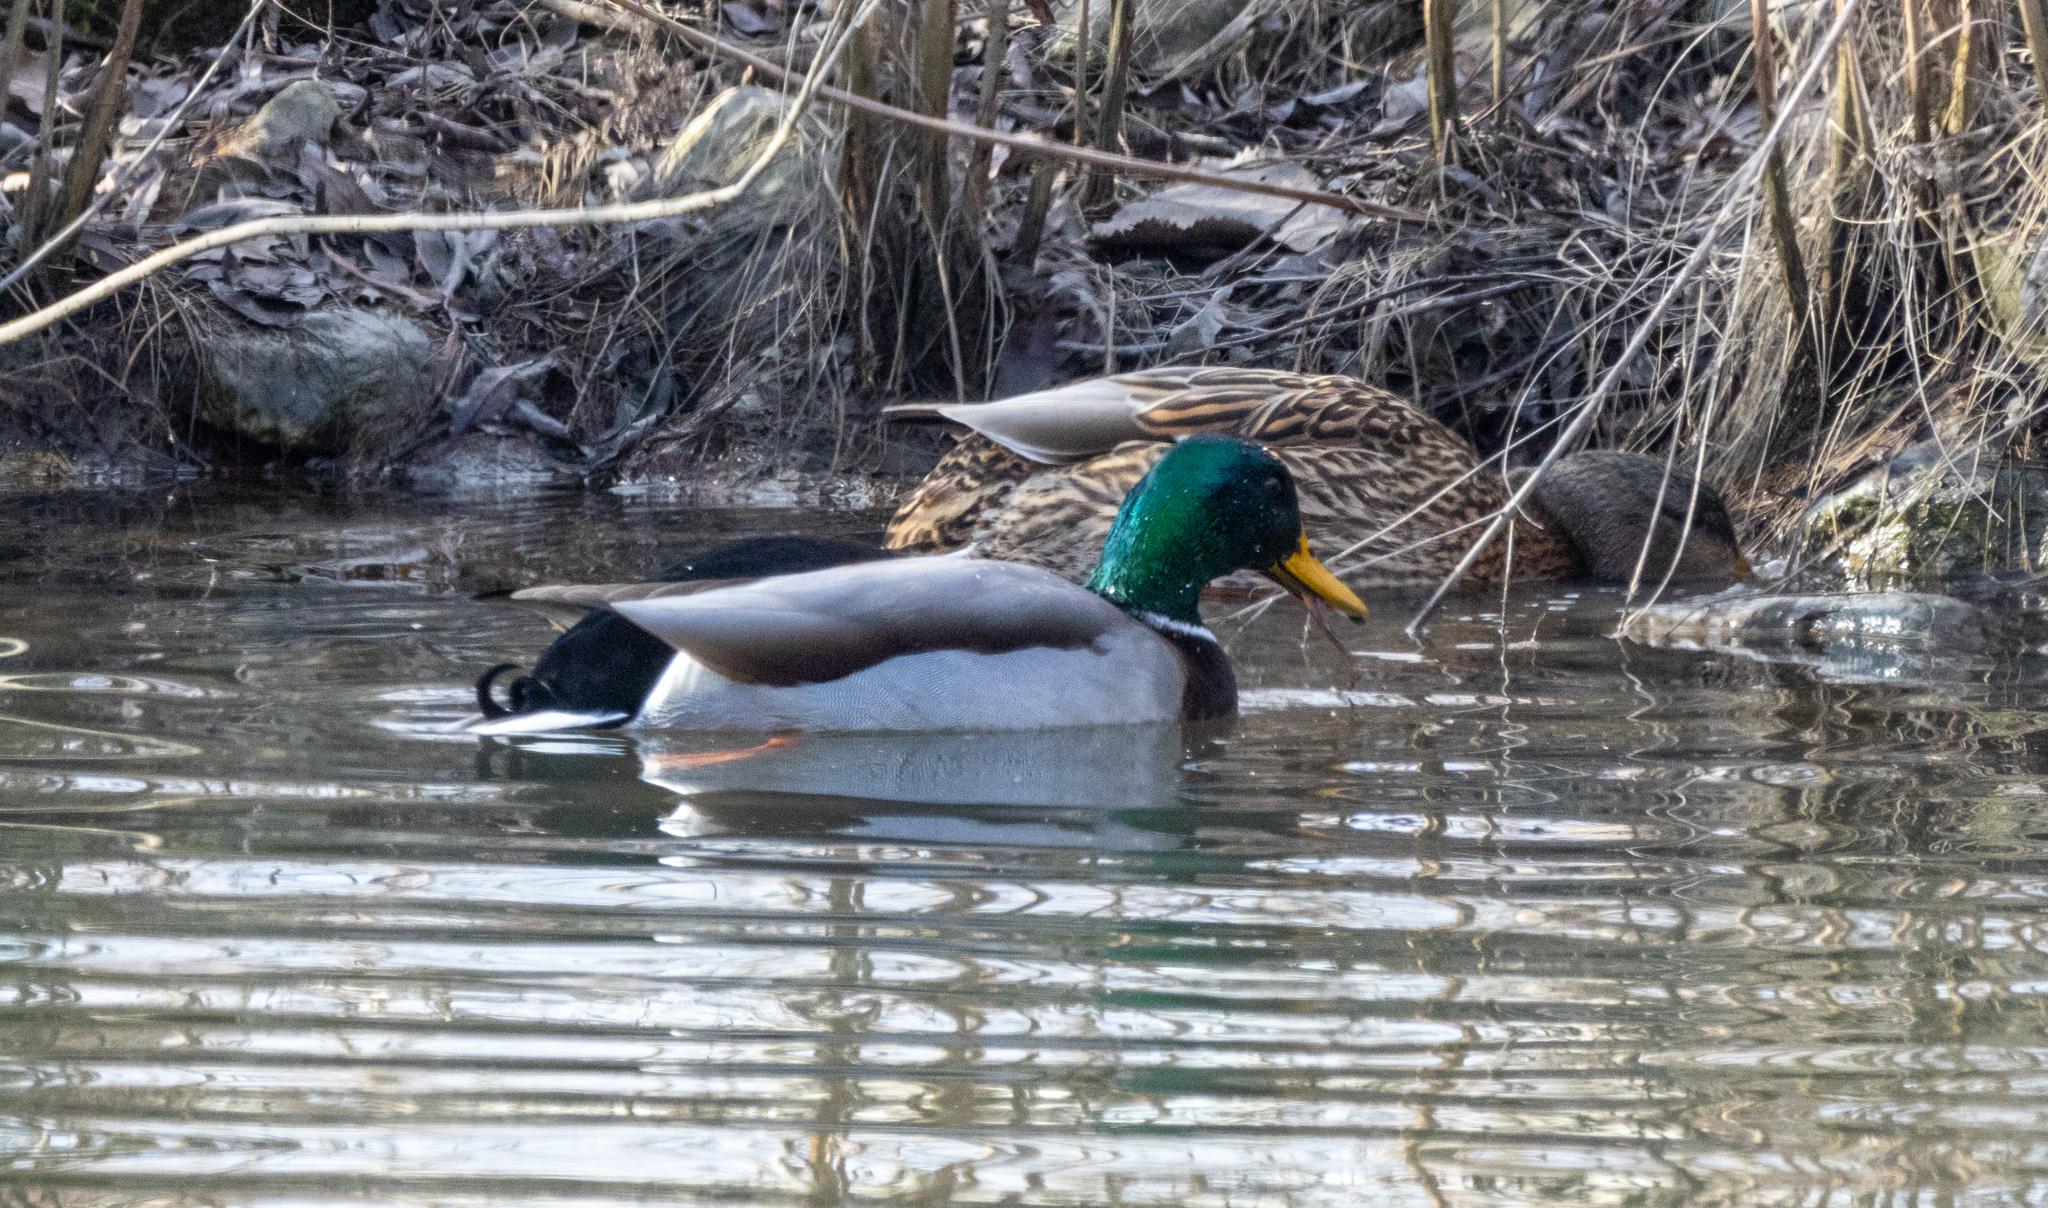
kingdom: Animalia
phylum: Chordata
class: Aves
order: Anseriformes
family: Anatidae
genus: Anas
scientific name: Anas platyrhynchos
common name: Mallard
